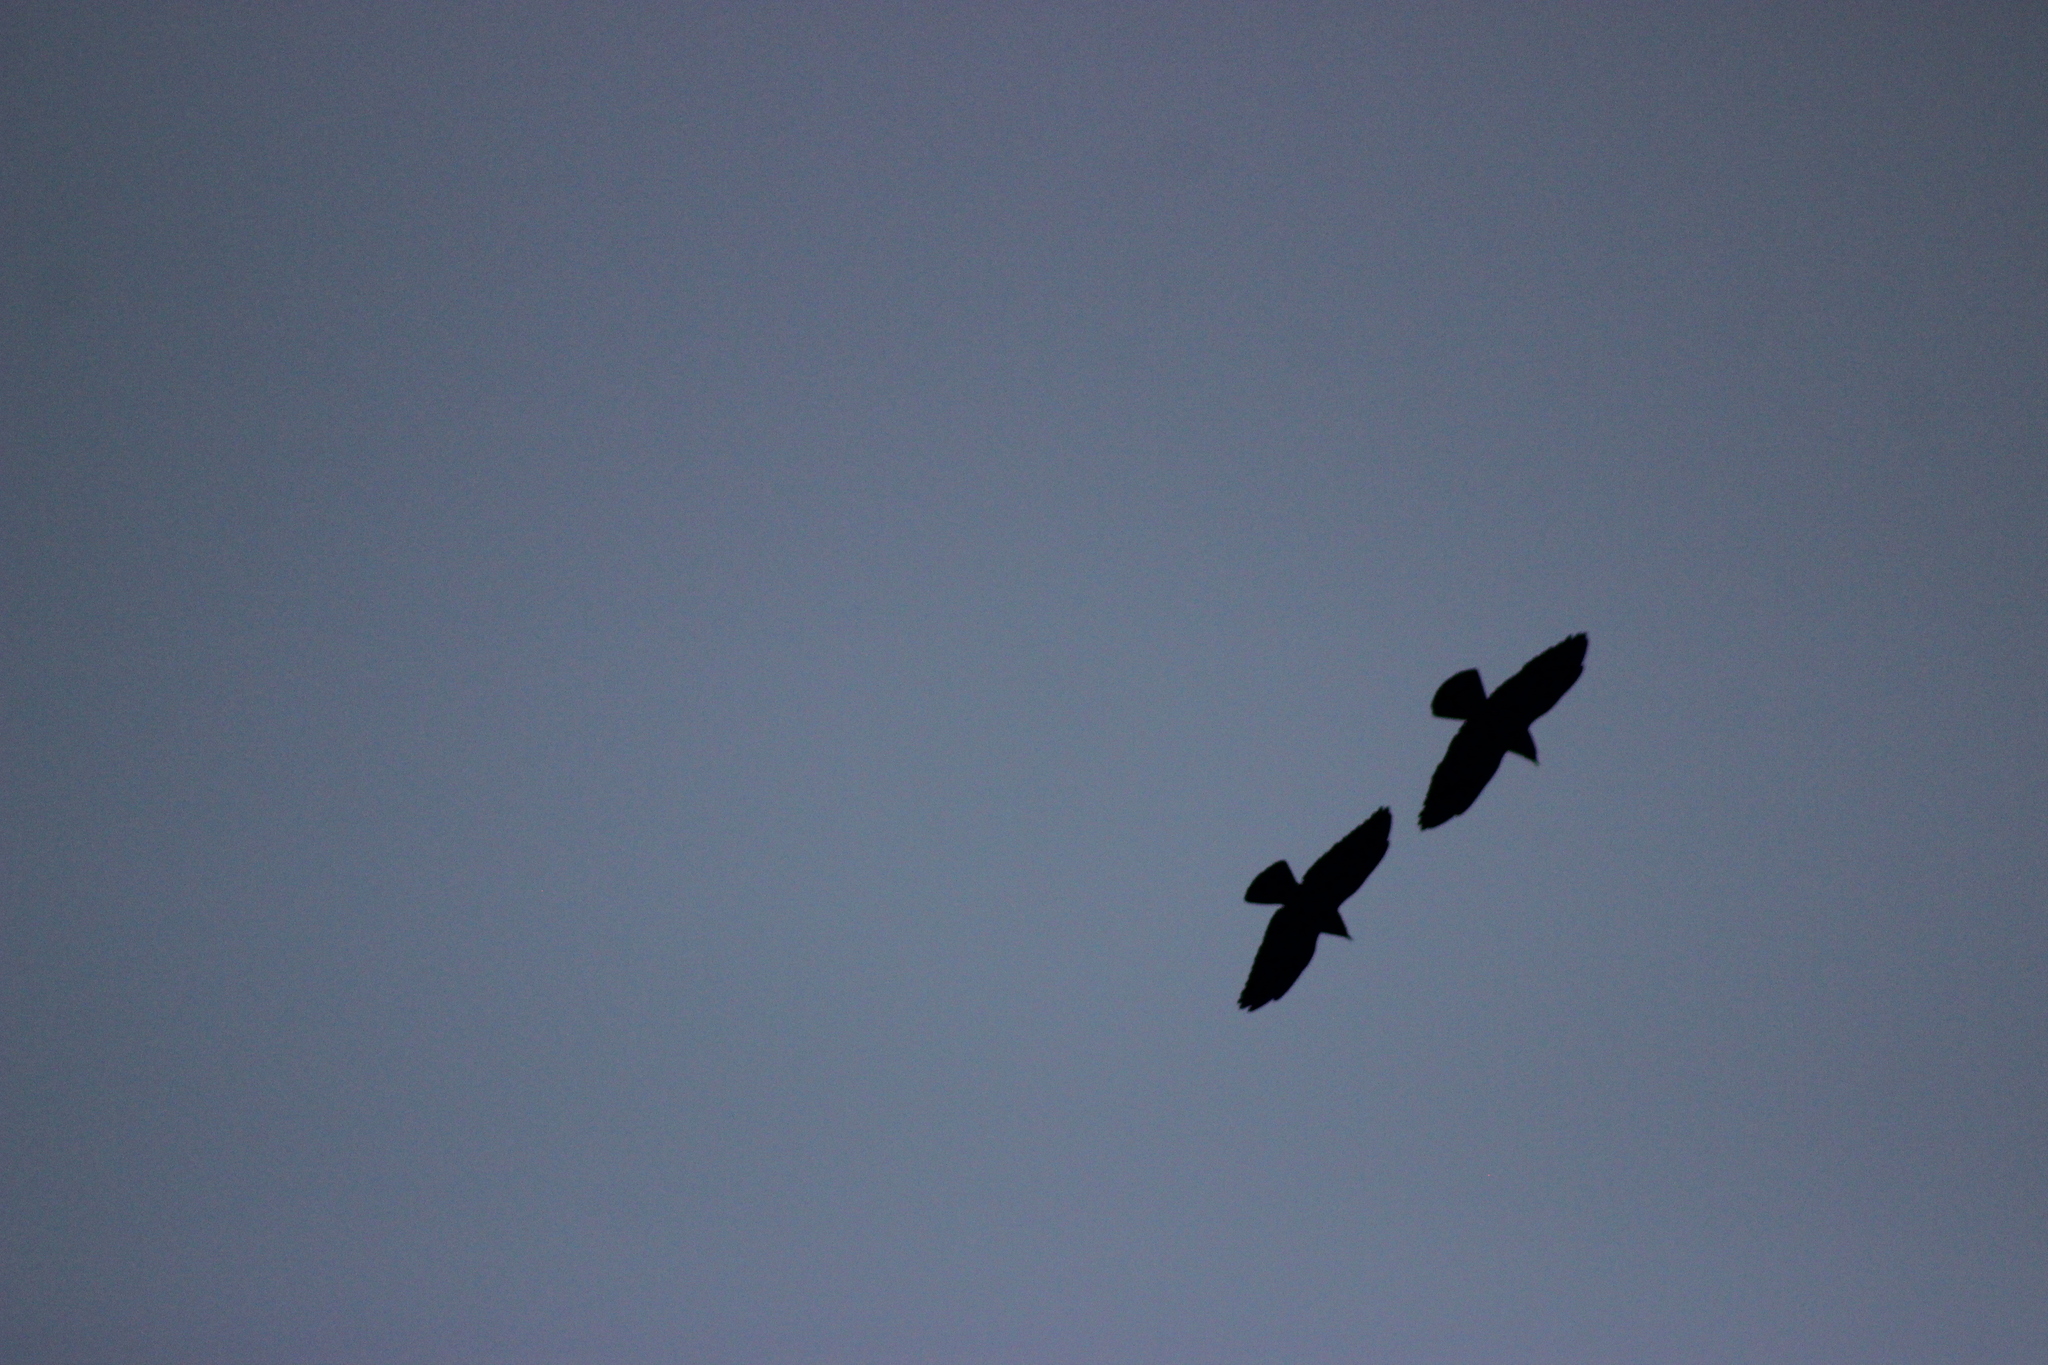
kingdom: Animalia
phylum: Chordata
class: Aves
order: Passeriformes
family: Corvidae
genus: Coloeus
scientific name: Coloeus monedula
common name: Western jackdaw
